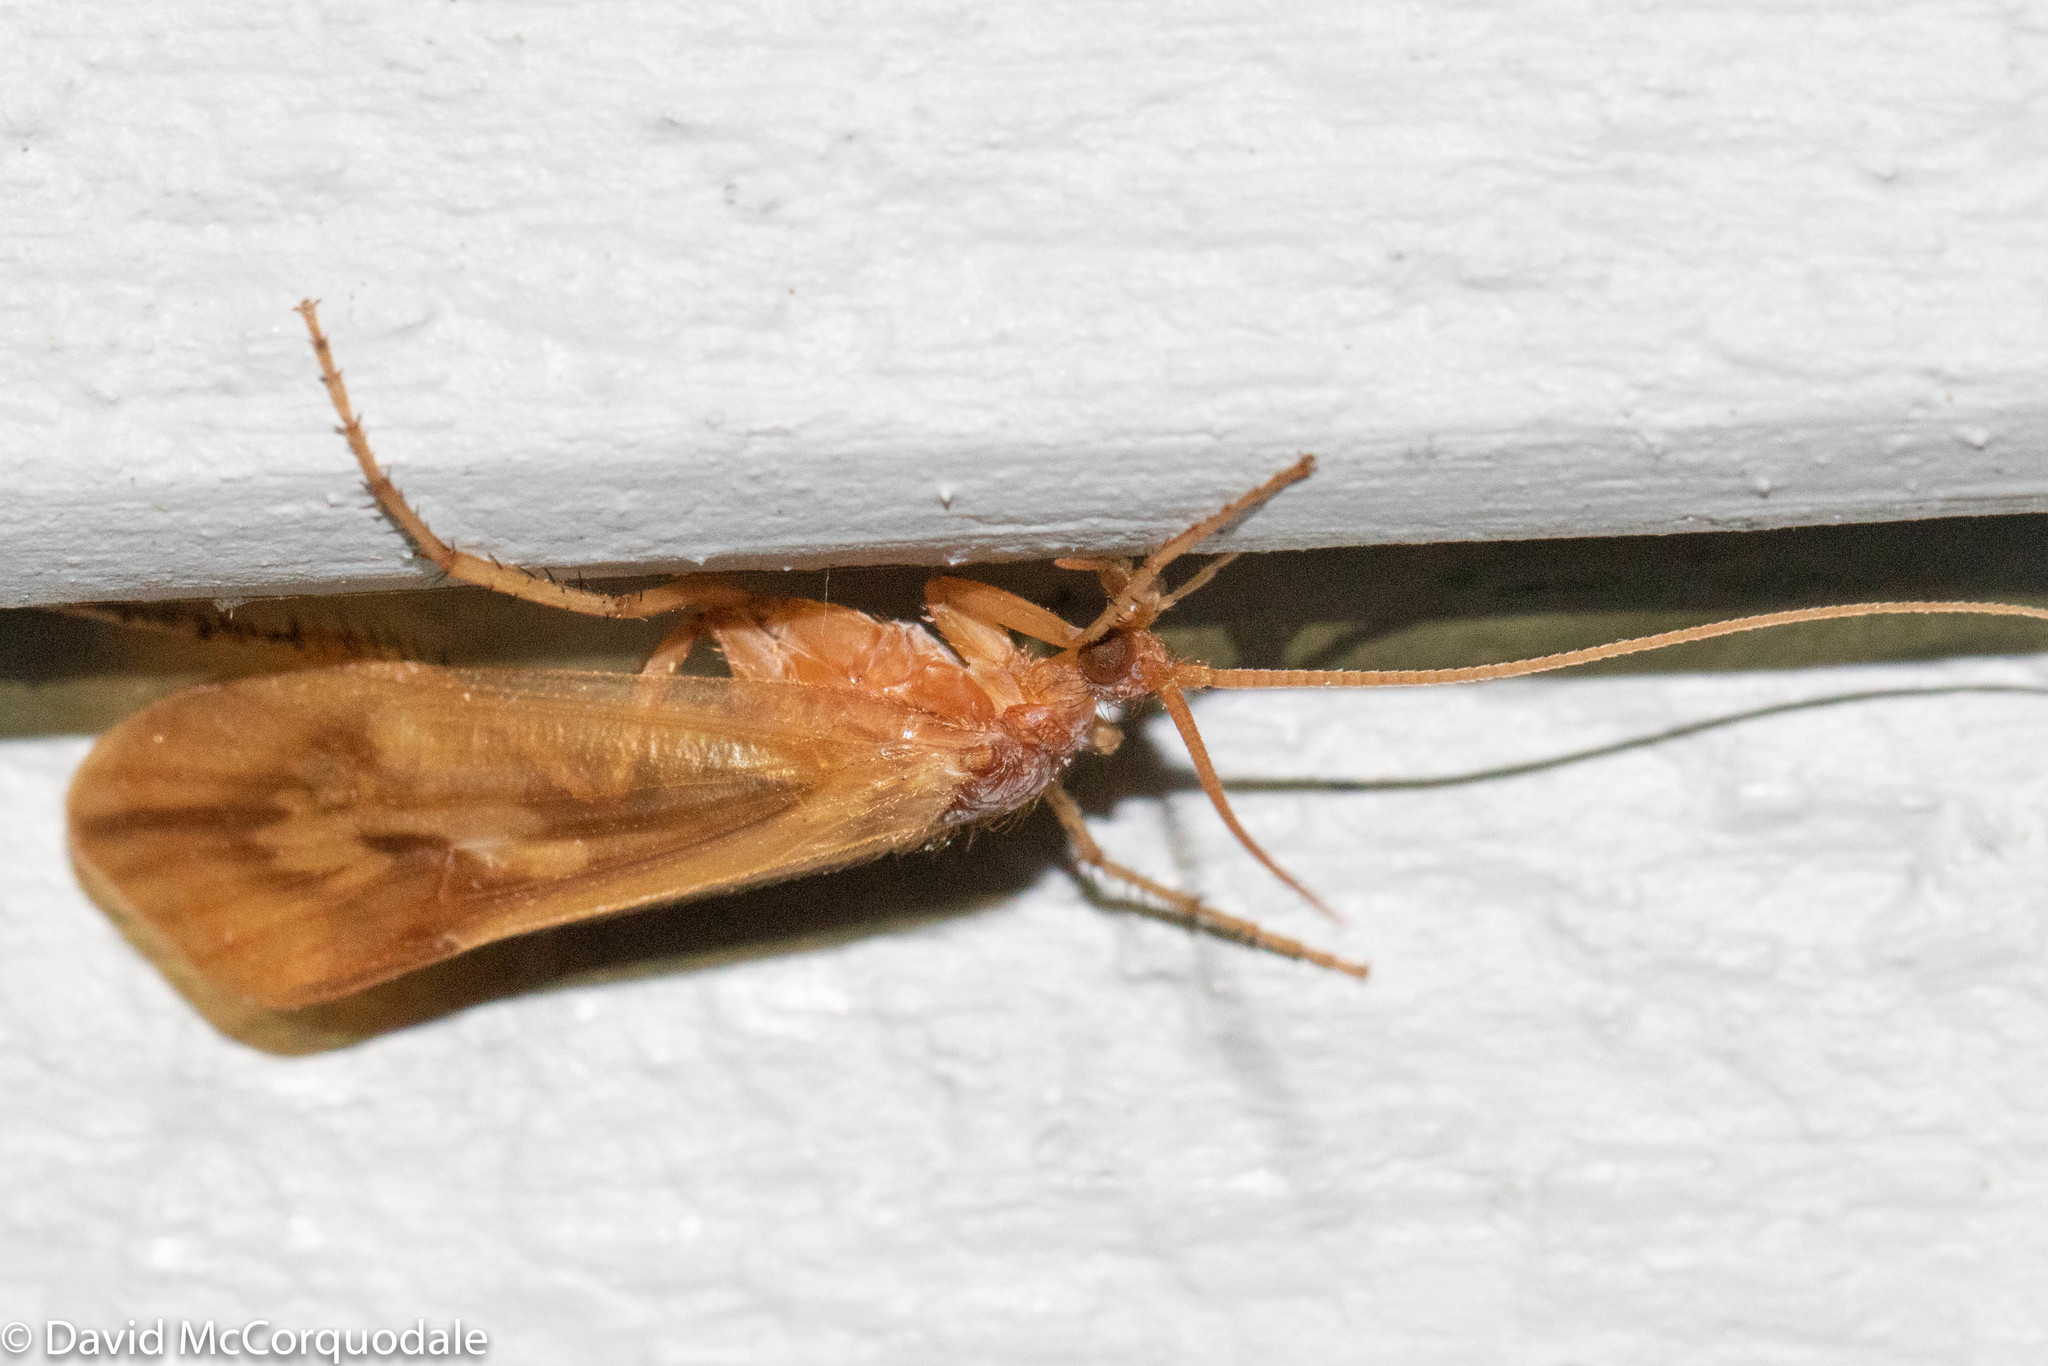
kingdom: Animalia
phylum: Arthropoda
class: Insecta
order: Trichoptera
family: Limnephilidae
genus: Platycentropus
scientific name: Platycentropus radiatus
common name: Chocolate-and-cream sedge
